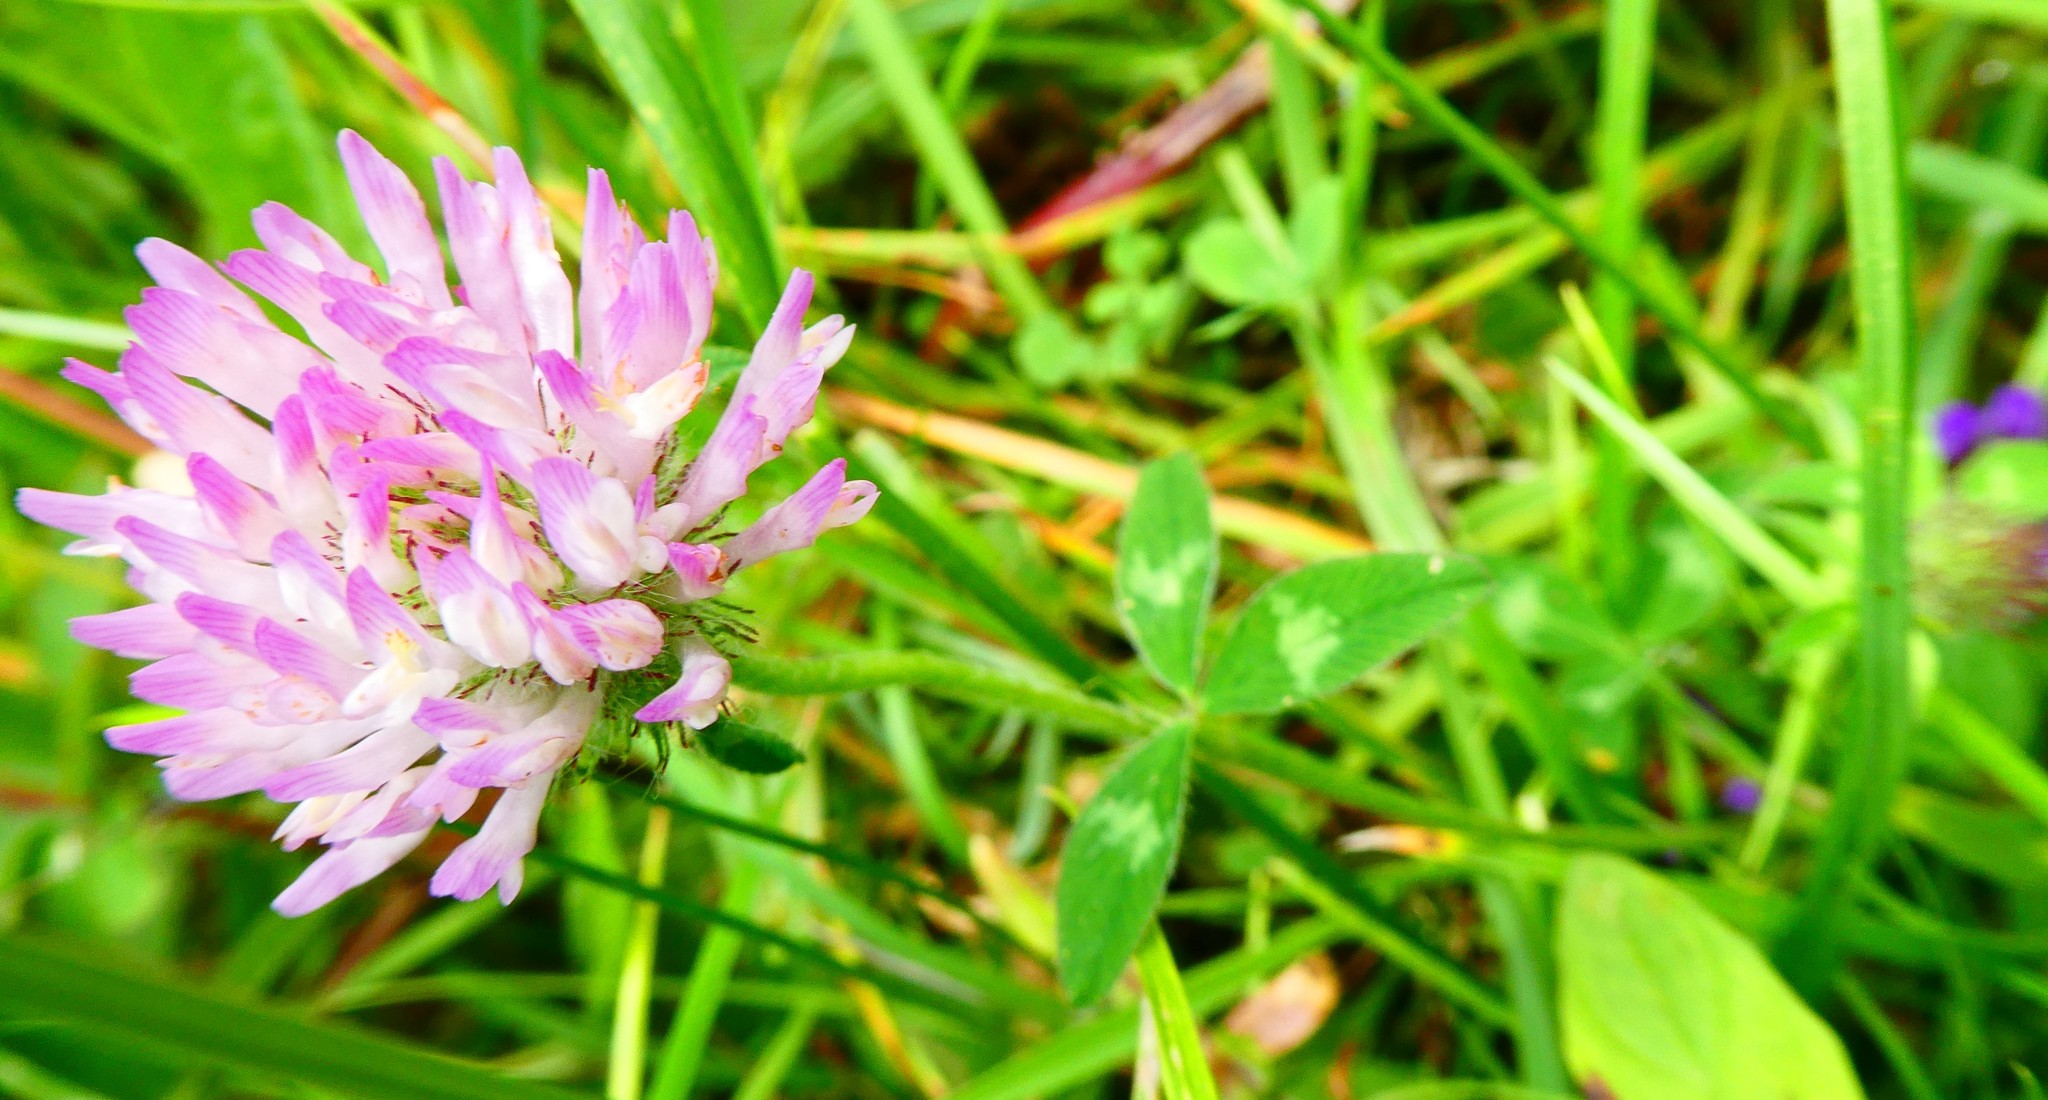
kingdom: Plantae
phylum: Tracheophyta
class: Magnoliopsida
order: Fabales
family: Fabaceae
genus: Trifolium
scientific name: Trifolium pratense
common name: Red clover
